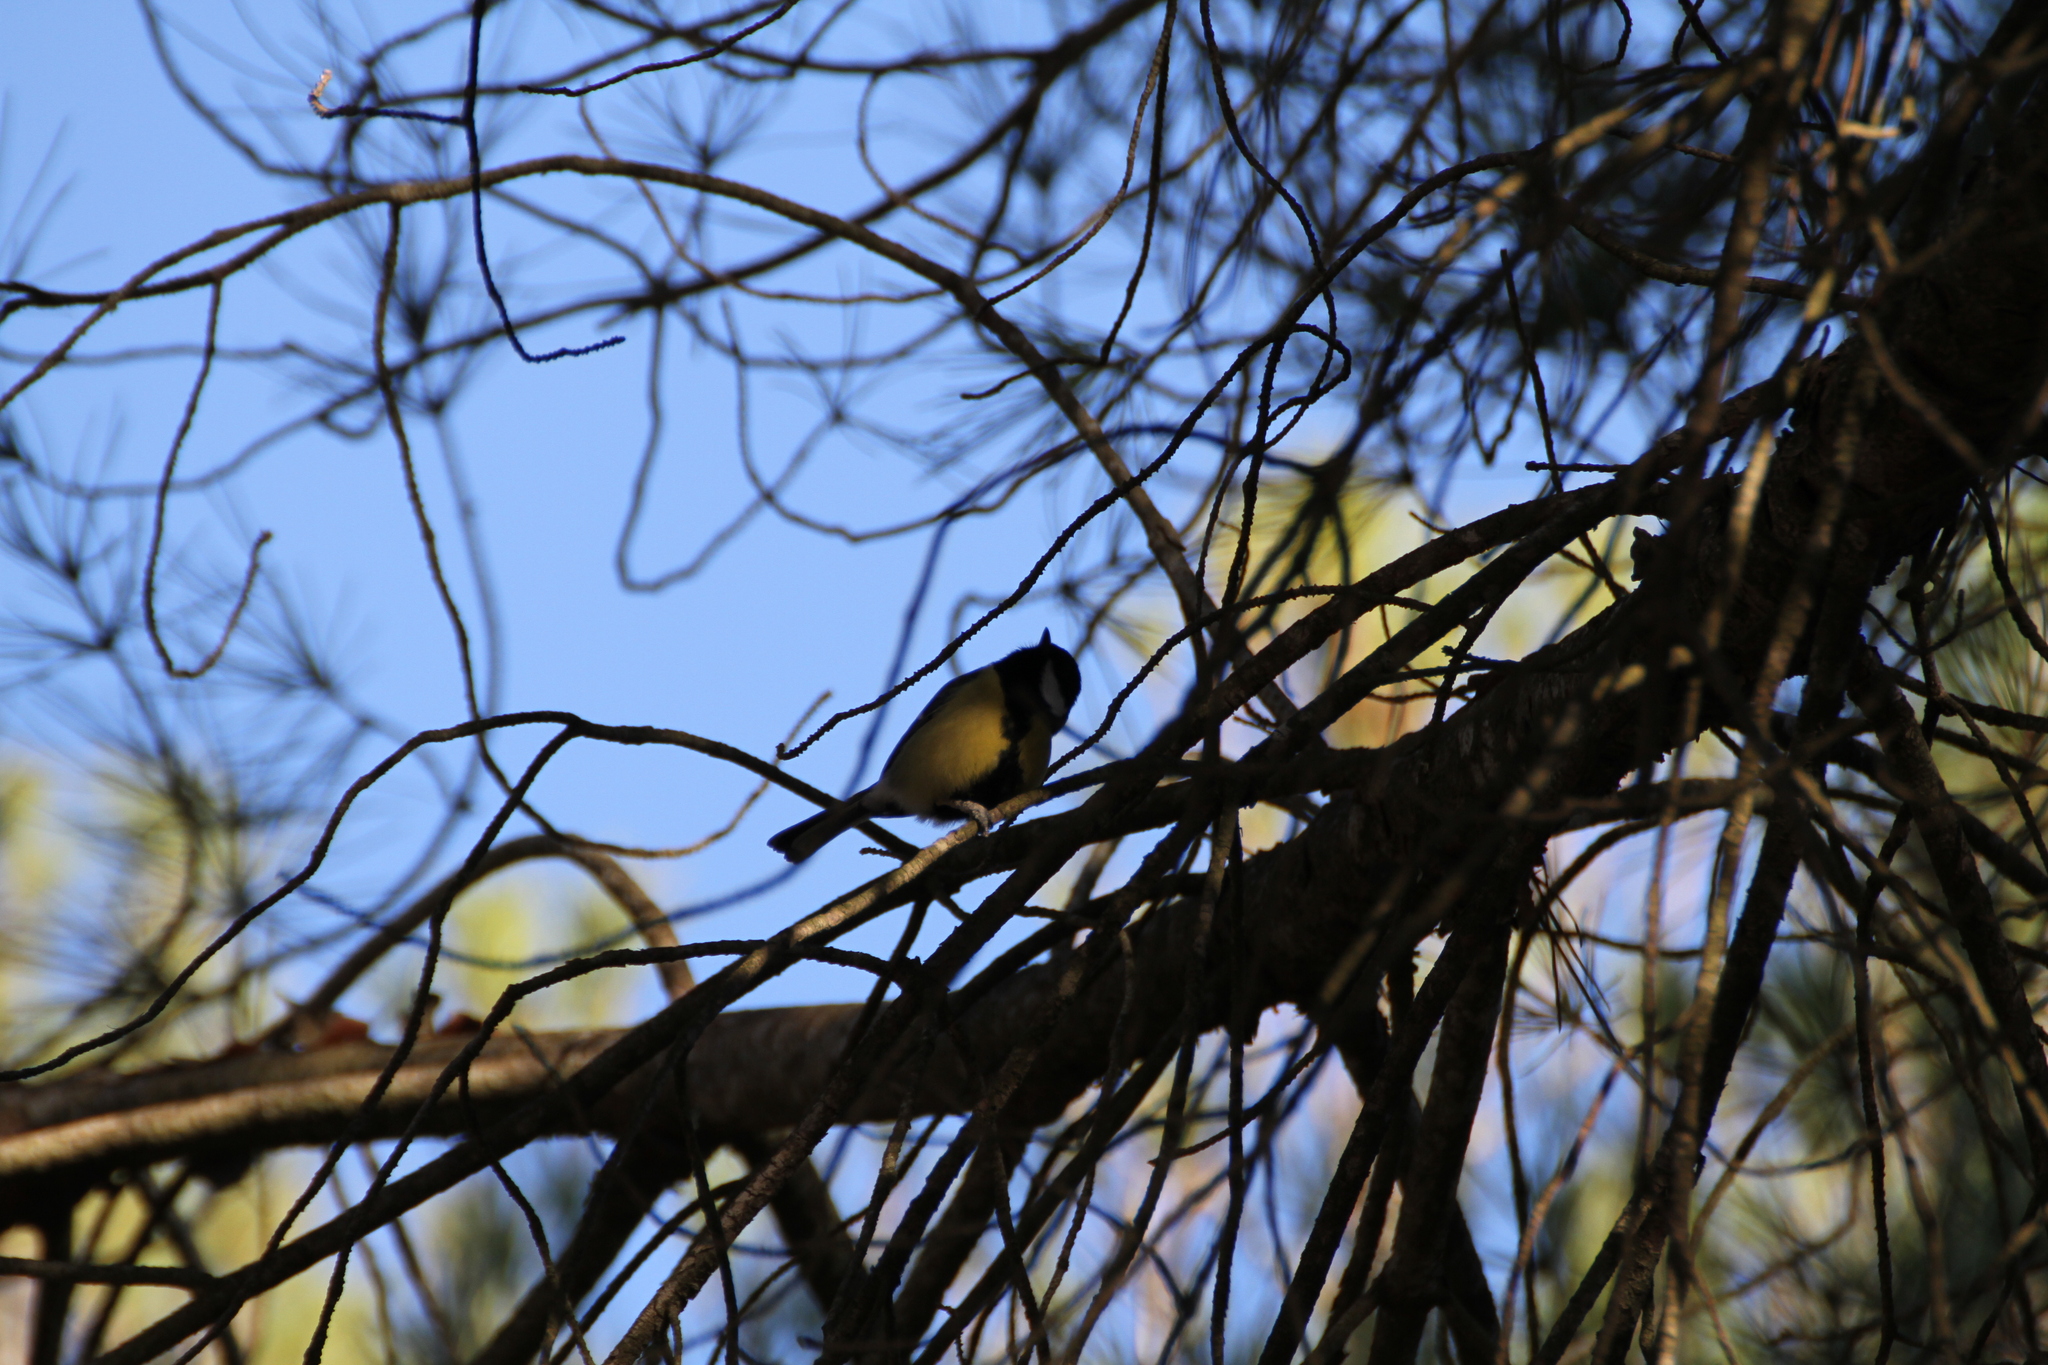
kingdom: Animalia
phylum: Chordata
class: Aves
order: Passeriformes
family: Paridae
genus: Parus
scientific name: Parus major
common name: Great tit
